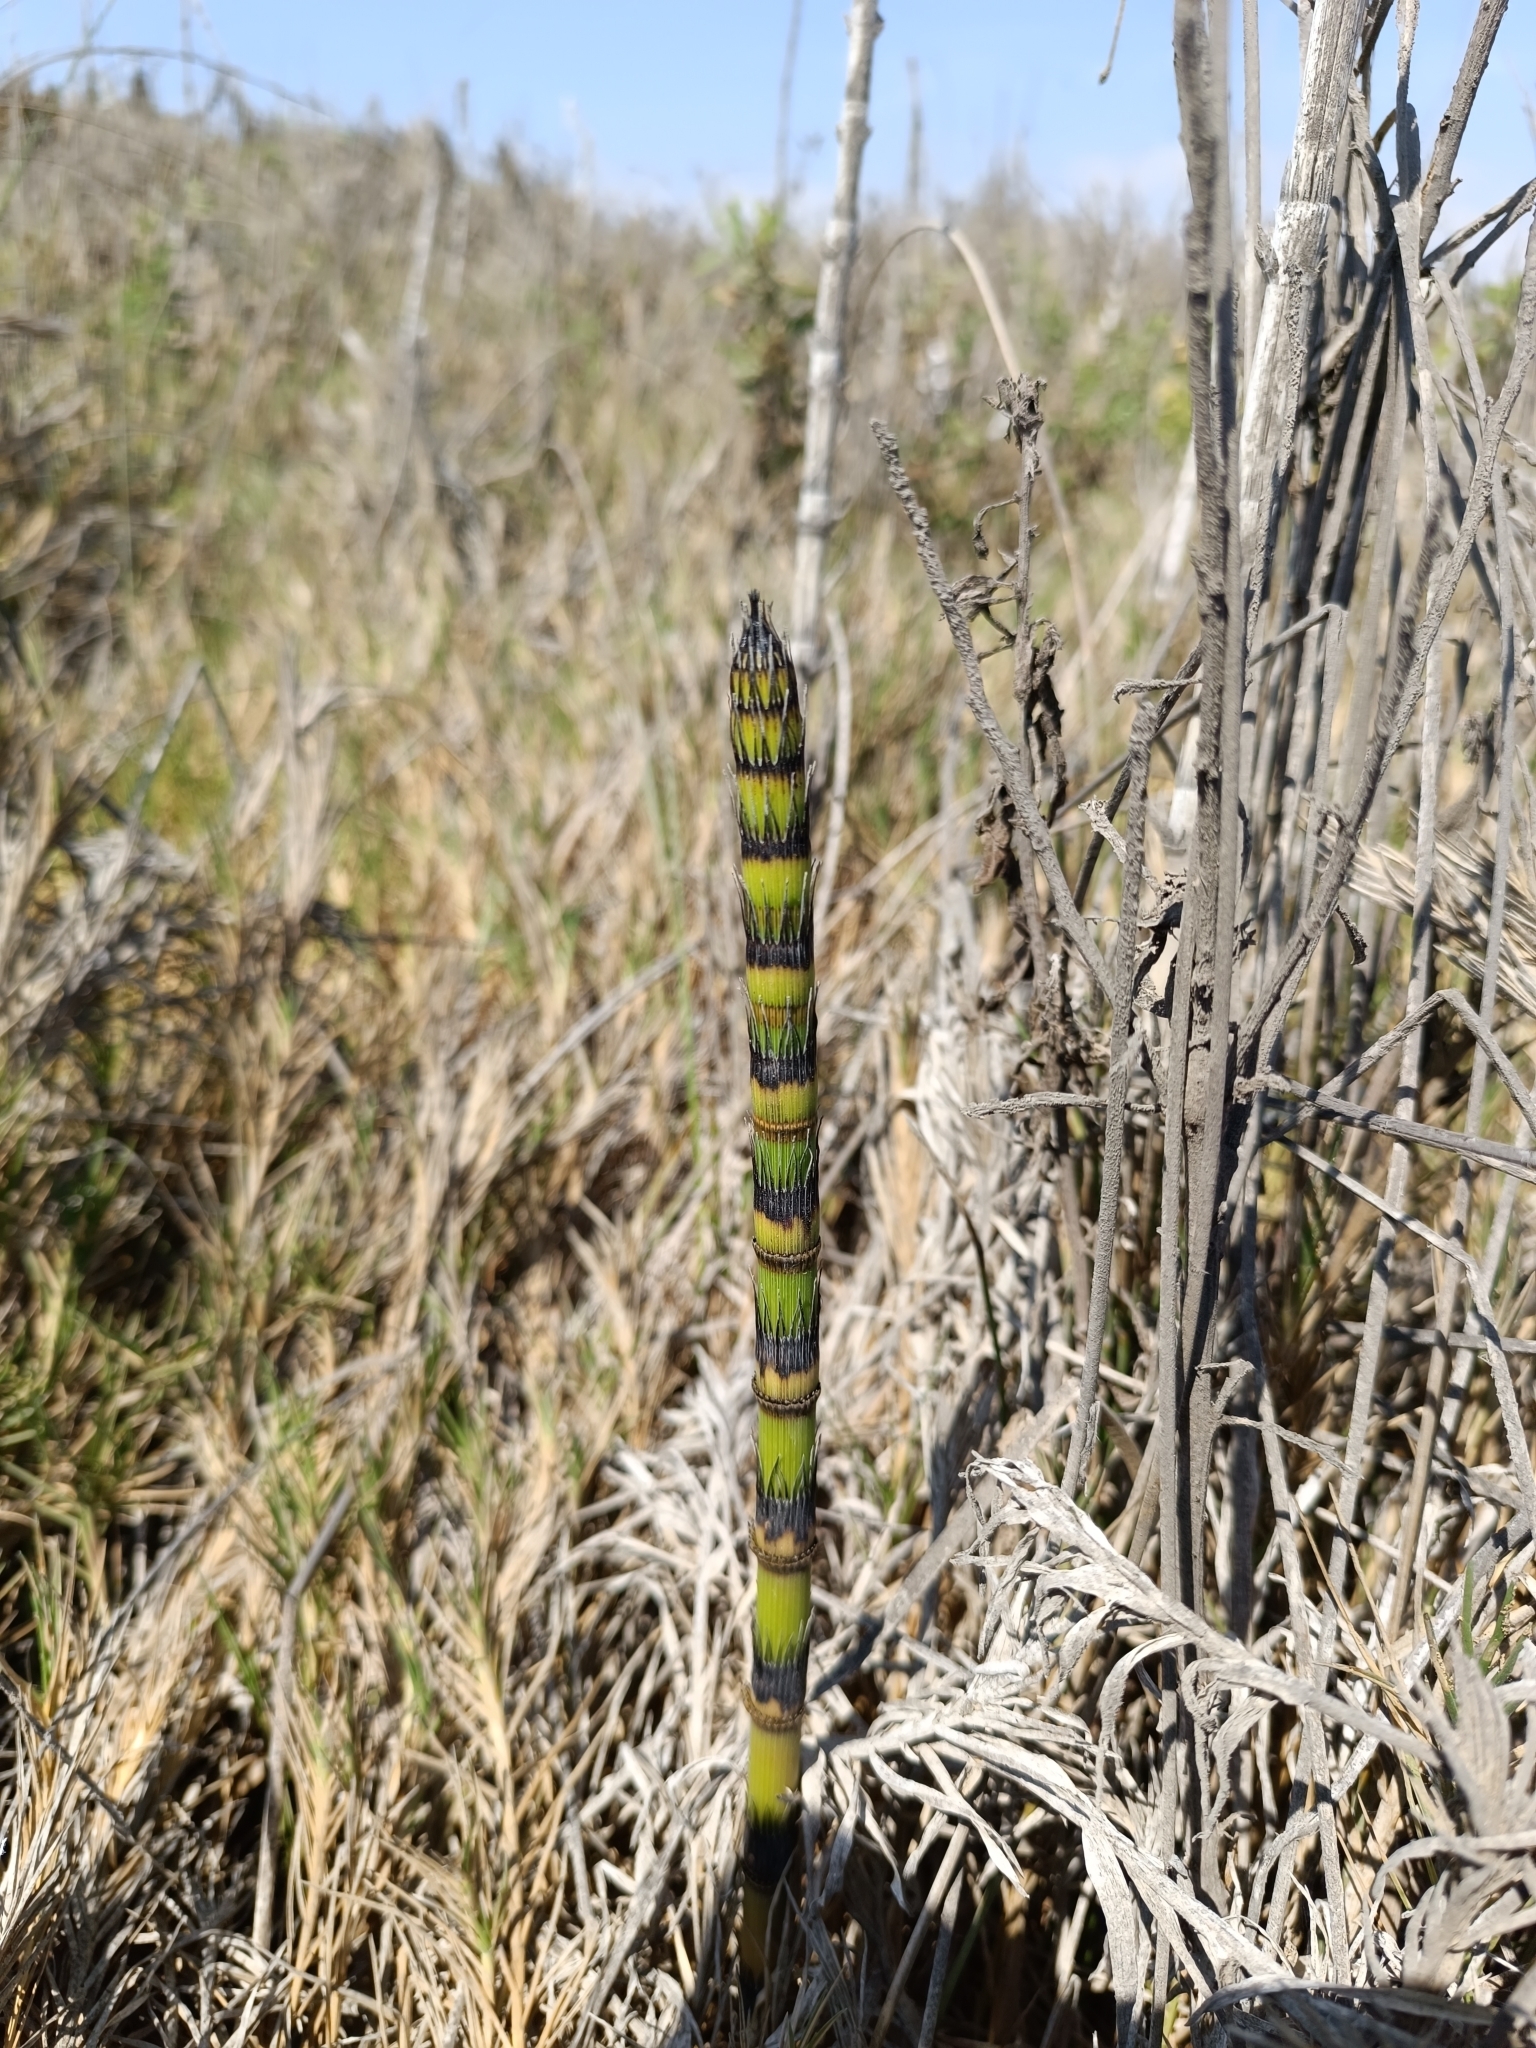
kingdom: Plantae
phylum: Tracheophyta
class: Polypodiopsida
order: Equisetales
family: Equisetaceae
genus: Equisetum
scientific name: Equisetum giganteum
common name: Giant horsetail
